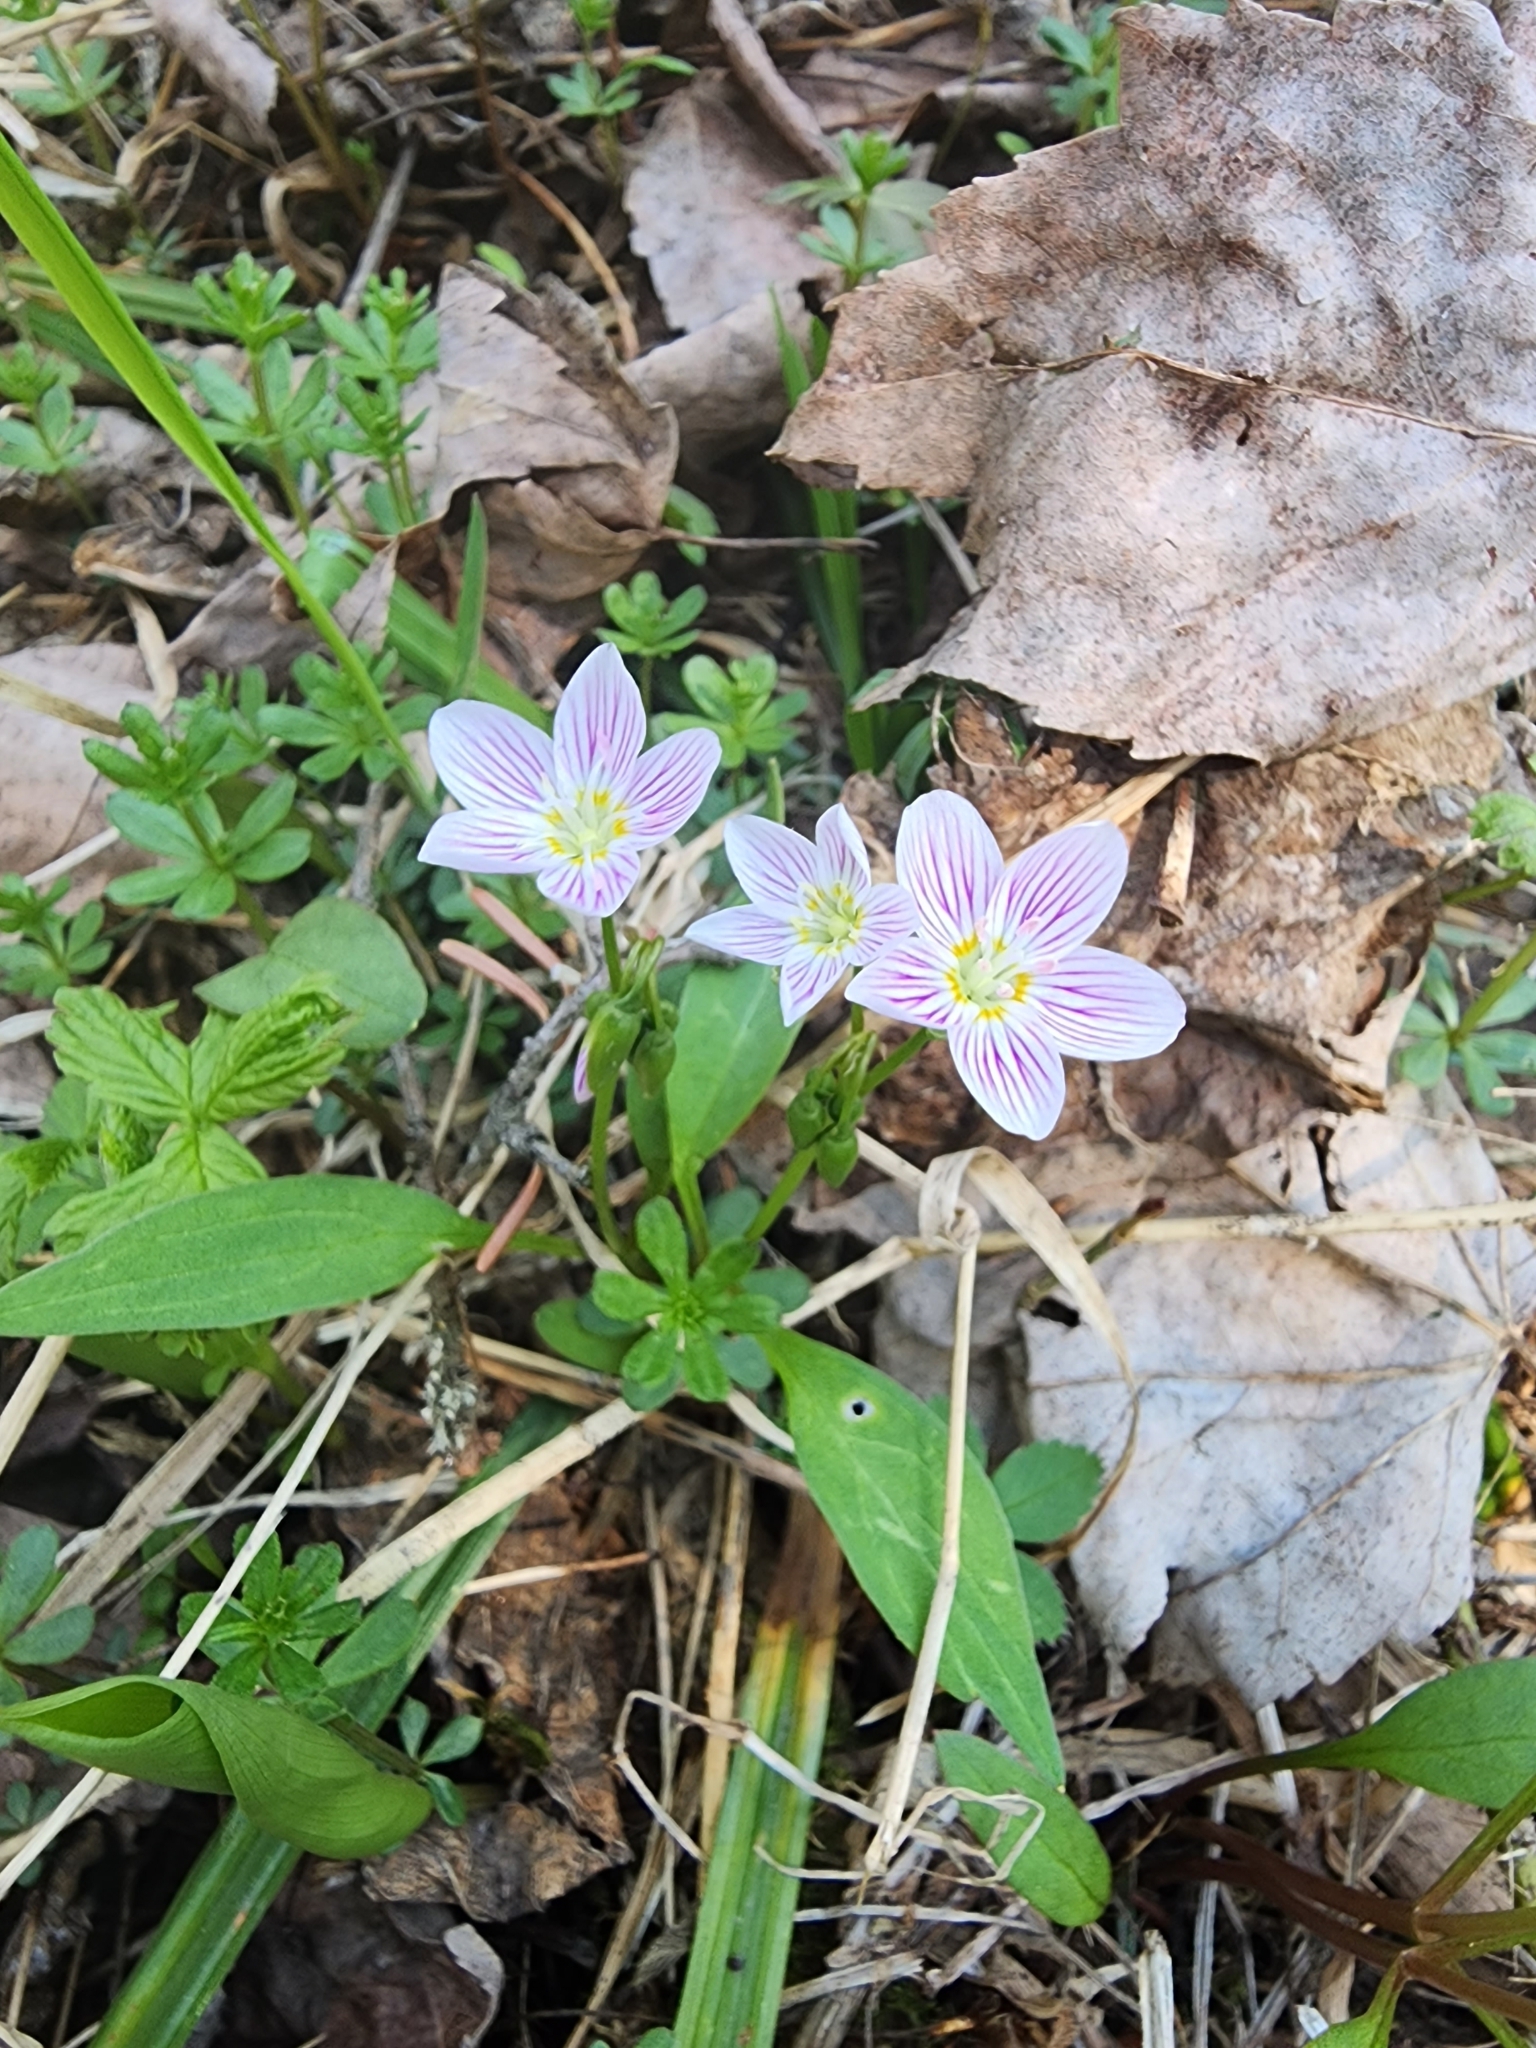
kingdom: Plantae
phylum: Tracheophyta
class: Magnoliopsida
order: Caryophyllales
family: Montiaceae
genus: Claytonia
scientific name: Claytonia caroliniana
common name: Carolina spring beauty
